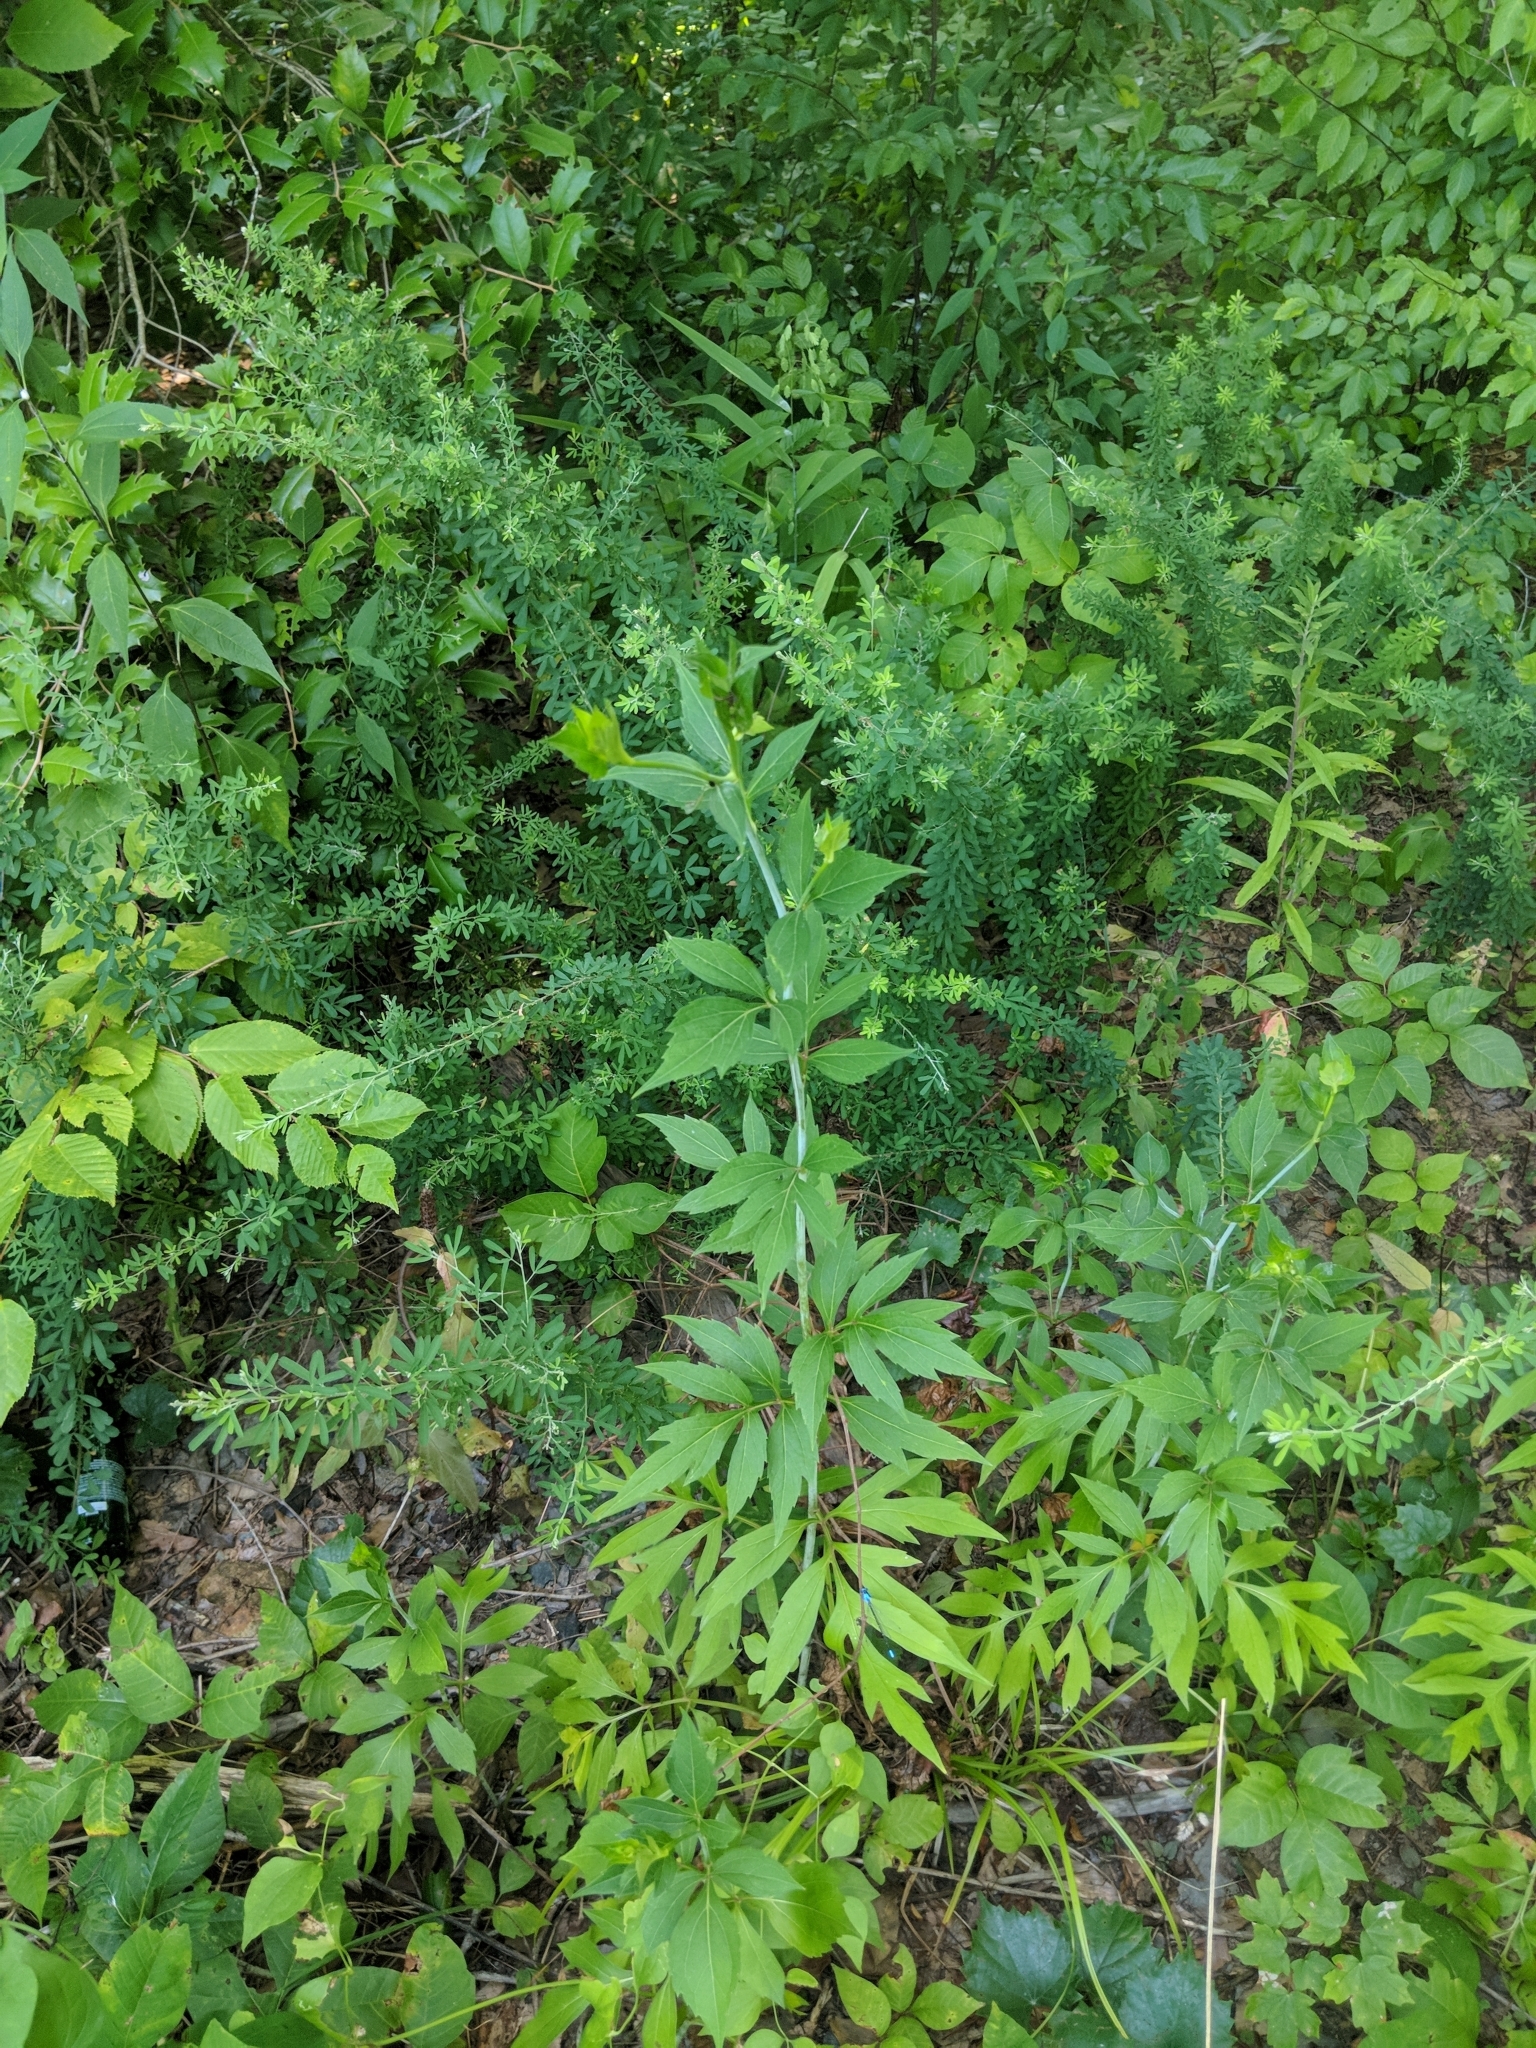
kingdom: Plantae
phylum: Tracheophyta
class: Magnoliopsida
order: Asterales
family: Asteraceae
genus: Rudbeckia
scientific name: Rudbeckia laciniata
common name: Coneflower
